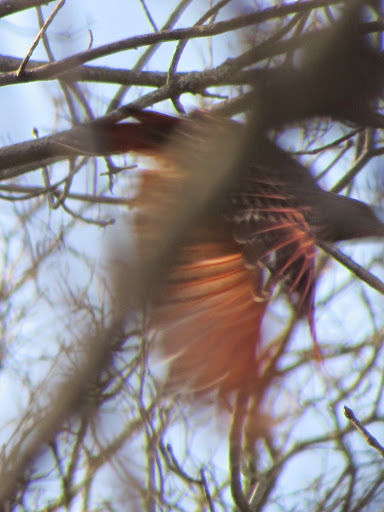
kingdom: Animalia
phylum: Chordata
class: Aves
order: Piciformes
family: Picidae
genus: Colaptes
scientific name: Colaptes auratus
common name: Northern flicker
